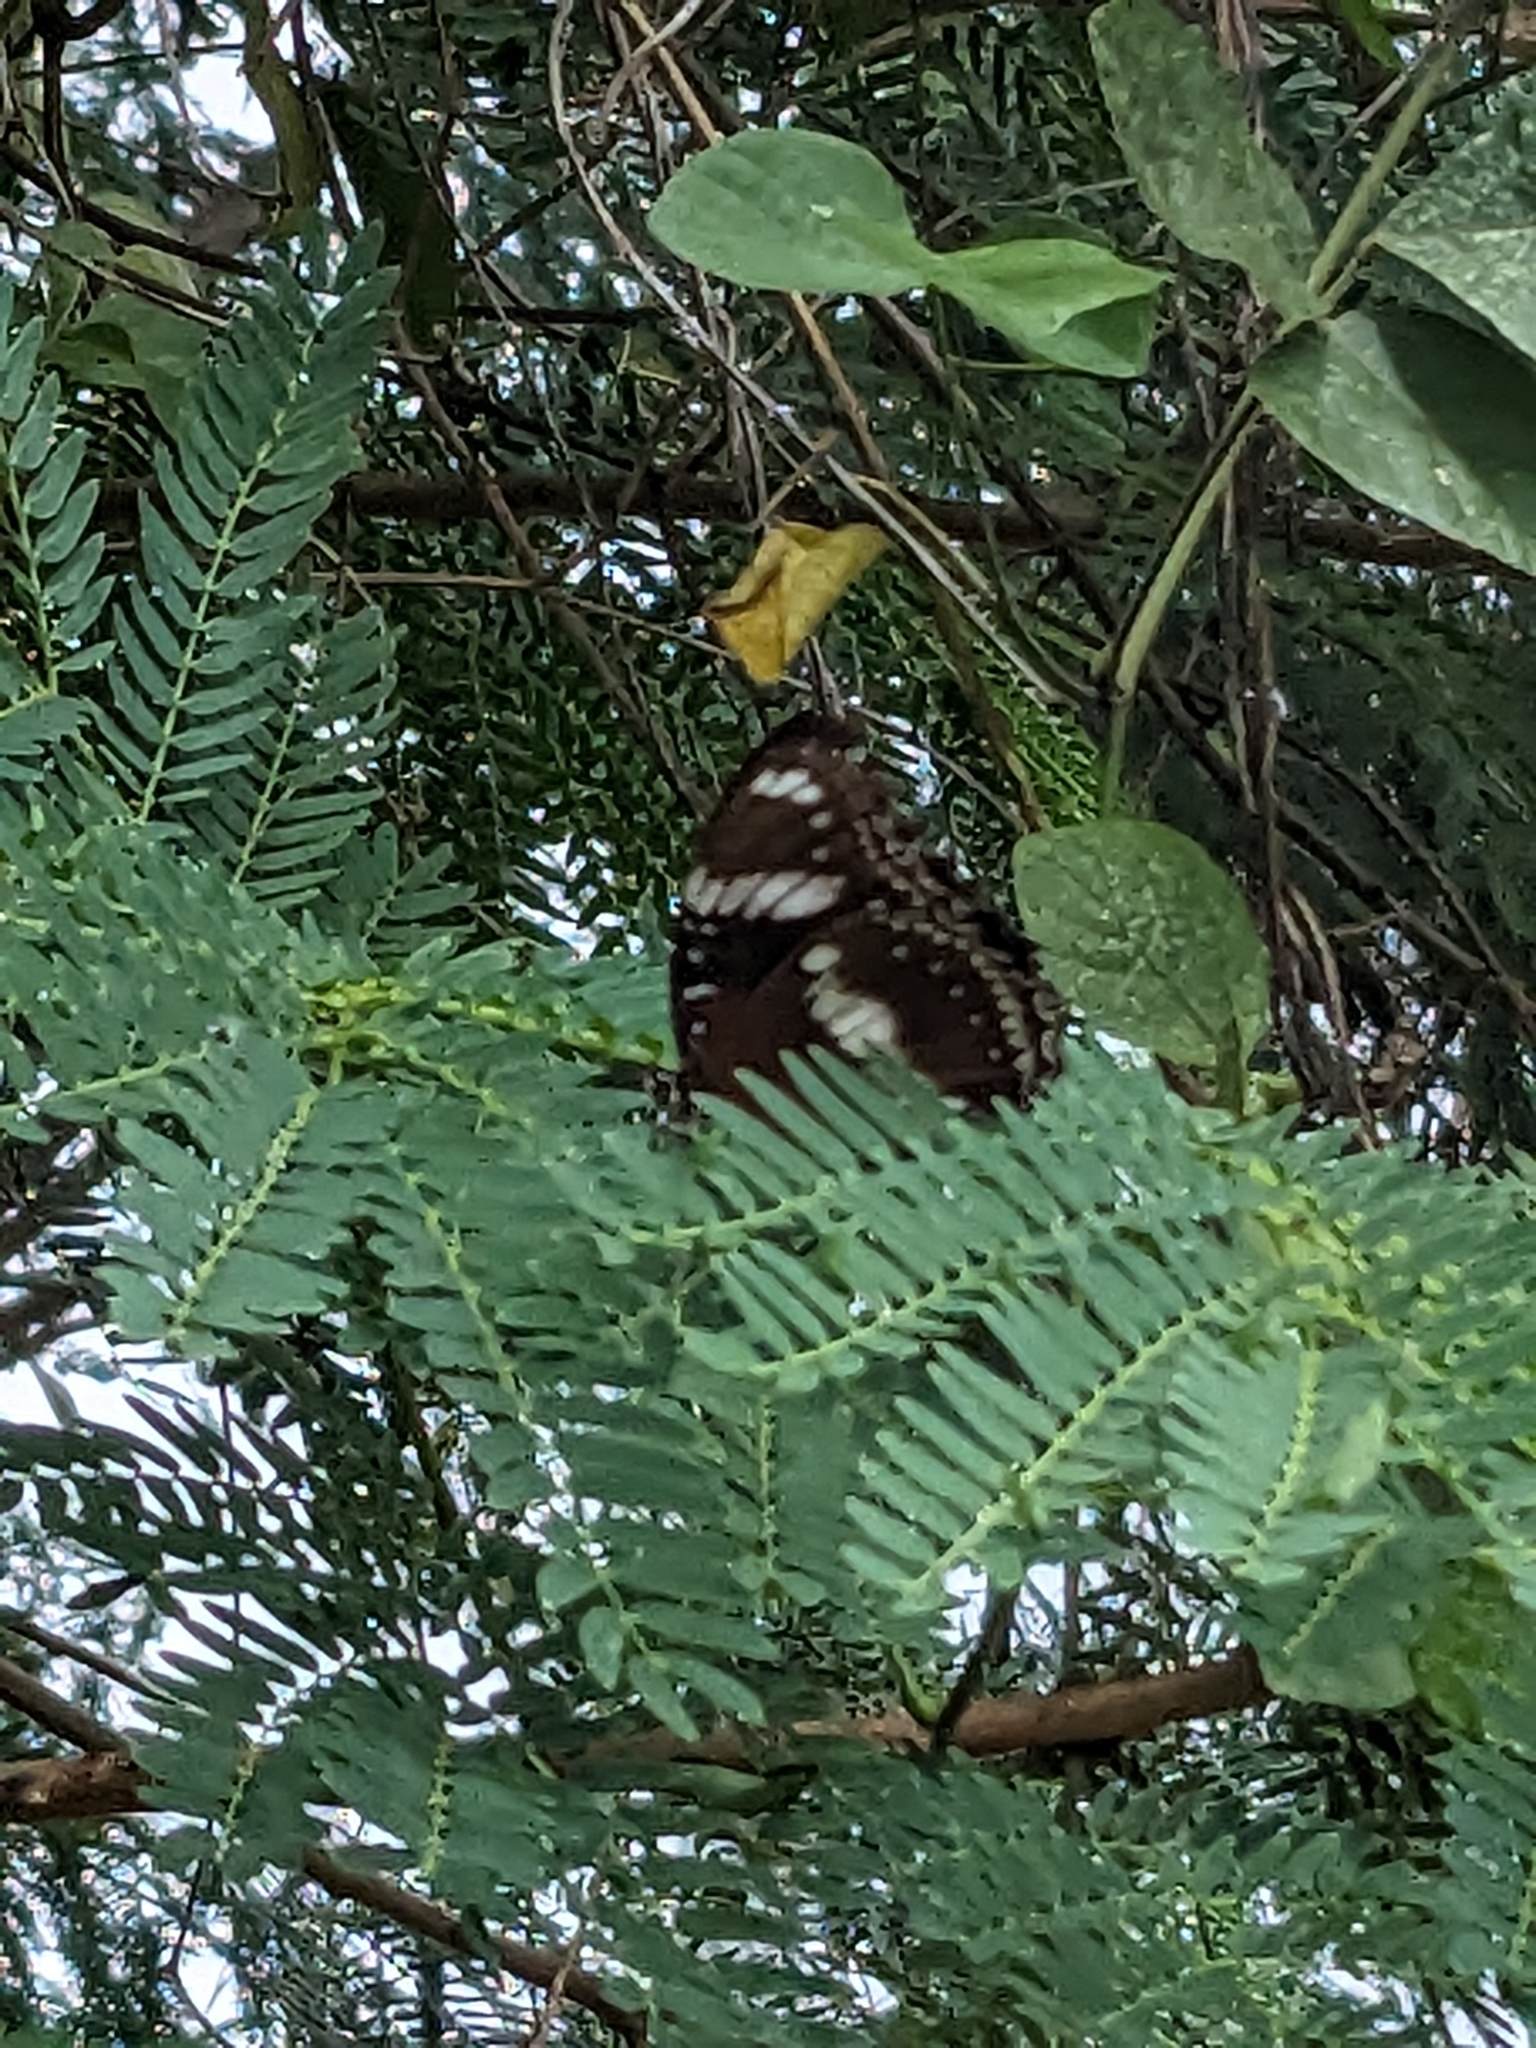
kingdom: Animalia
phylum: Arthropoda
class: Insecta
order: Lepidoptera
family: Nymphalidae
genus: Hypolimnas
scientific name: Hypolimnas bolina
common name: Great eggfly
